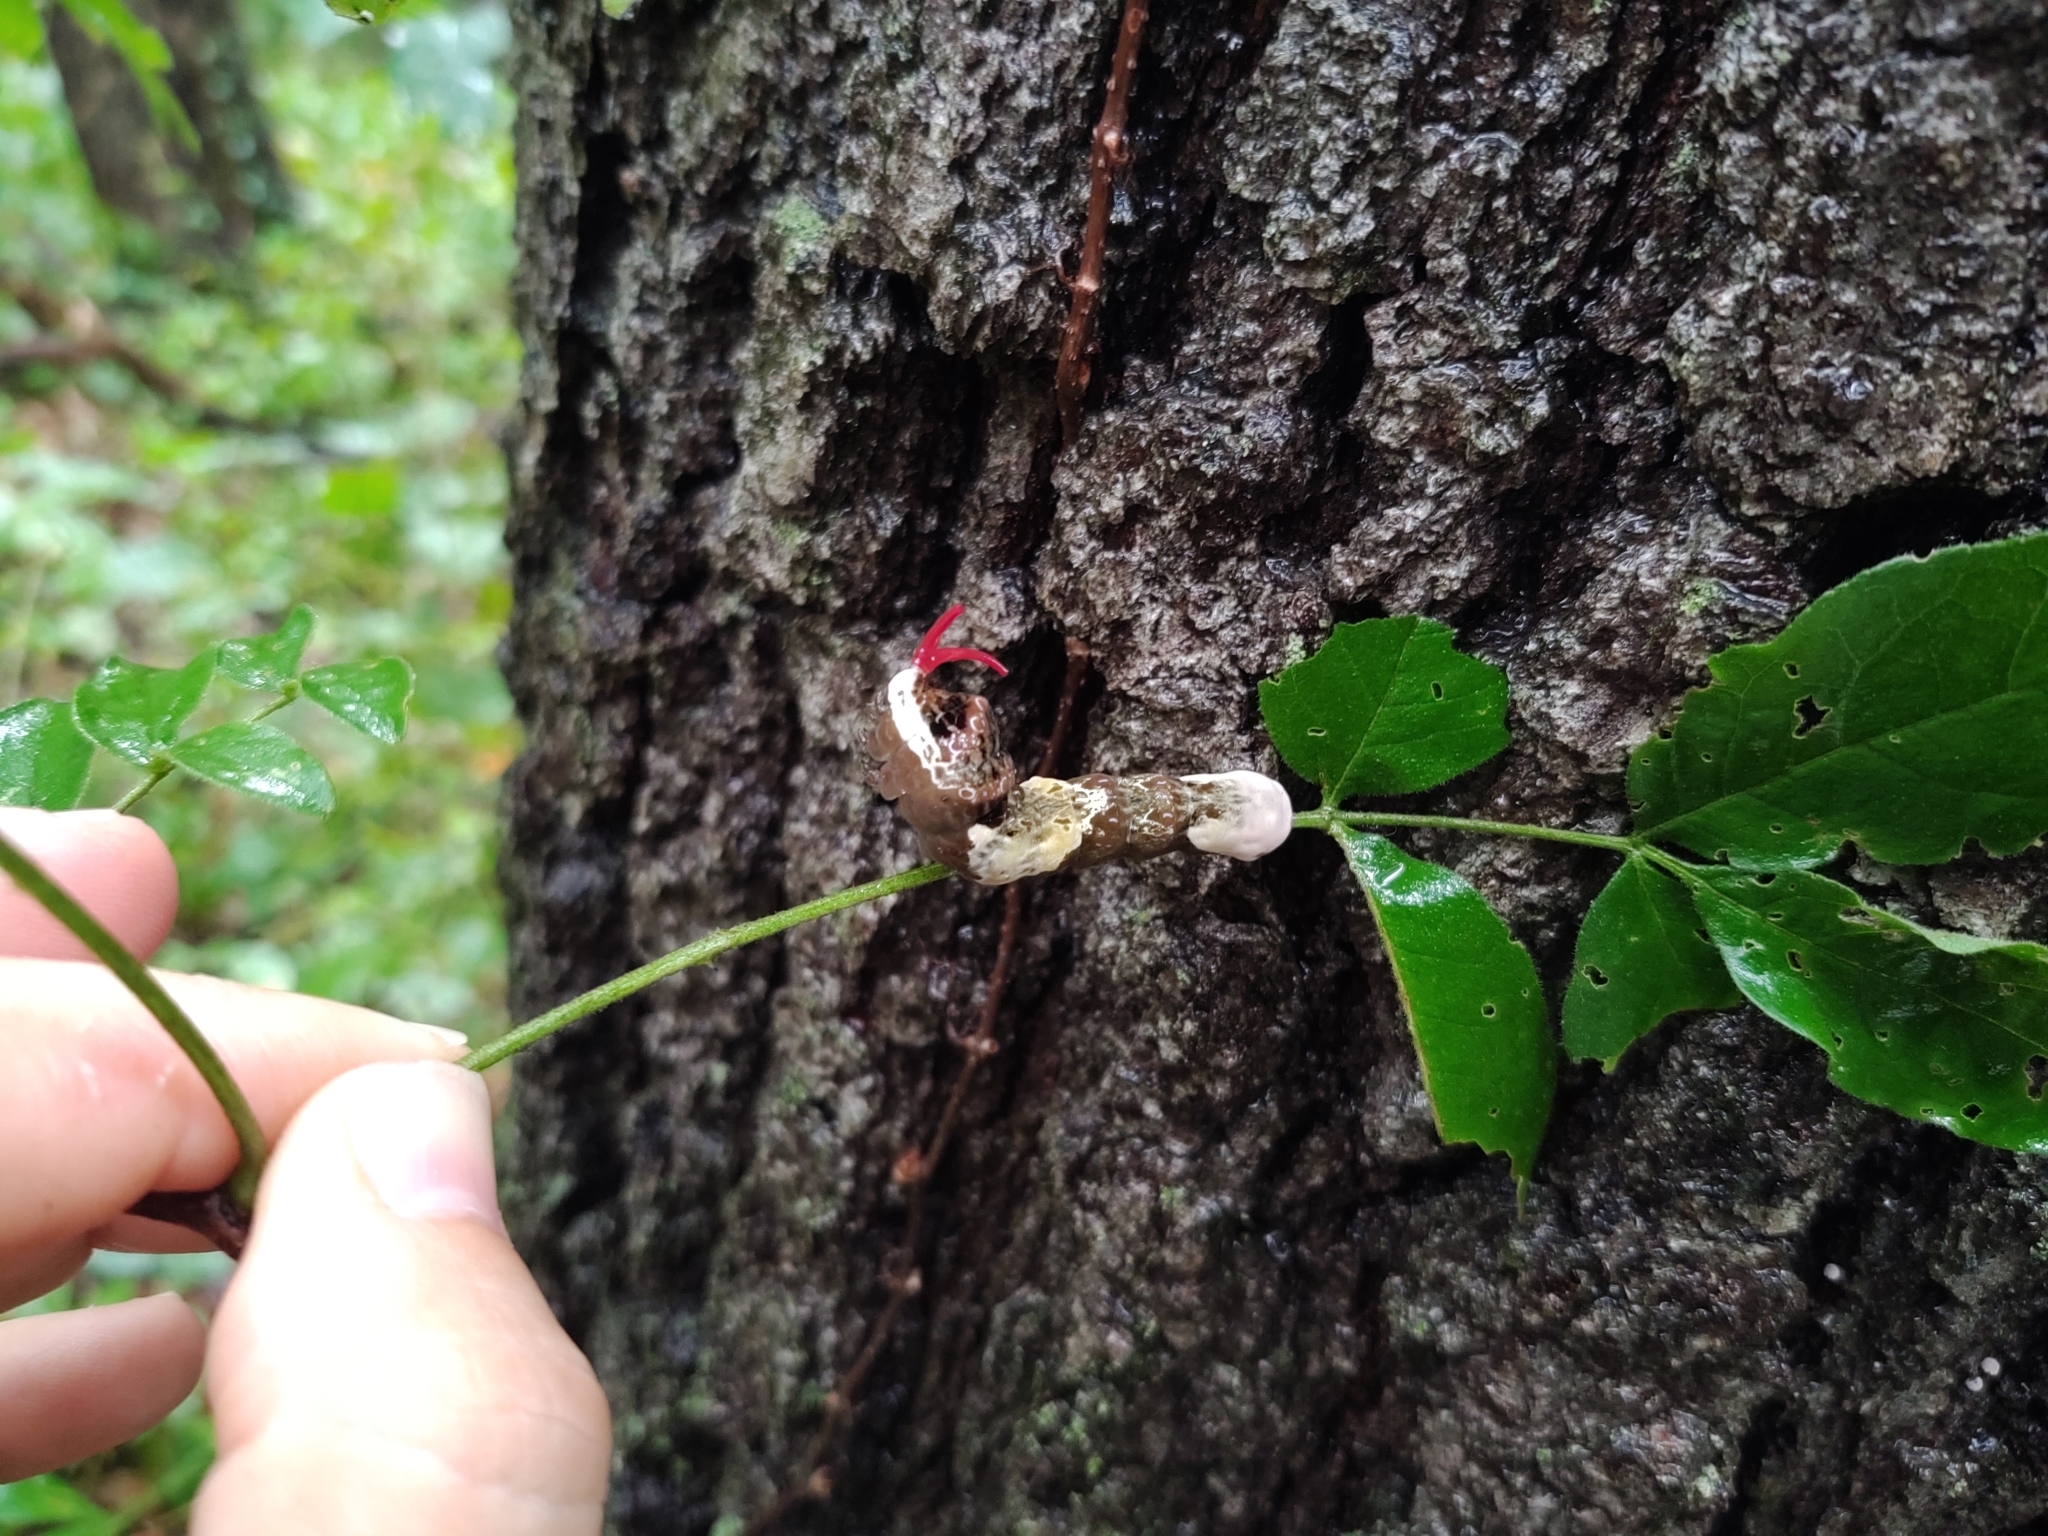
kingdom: Animalia
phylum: Arthropoda
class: Insecta
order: Lepidoptera
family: Papilionidae
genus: Papilio
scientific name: Papilio cresphontes
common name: Giant swallowtail
